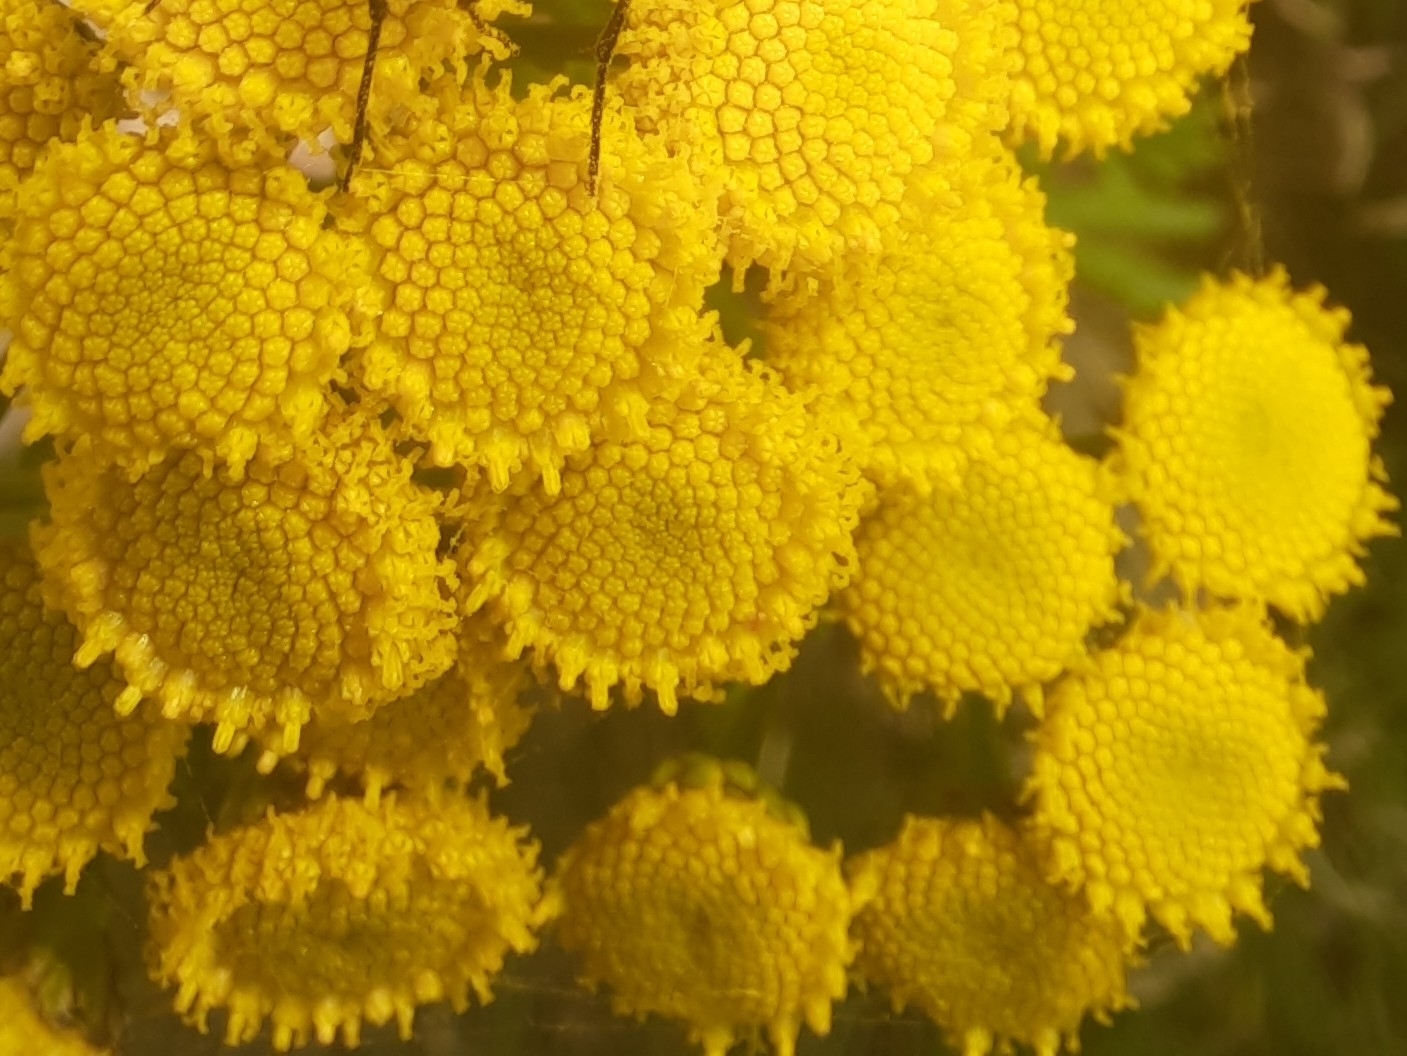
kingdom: Plantae
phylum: Tracheophyta
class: Magnoliopsida
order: Asterales
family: Asteraceae
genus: Tanacetum
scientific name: Tanacetum vulgare
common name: Common tansy
